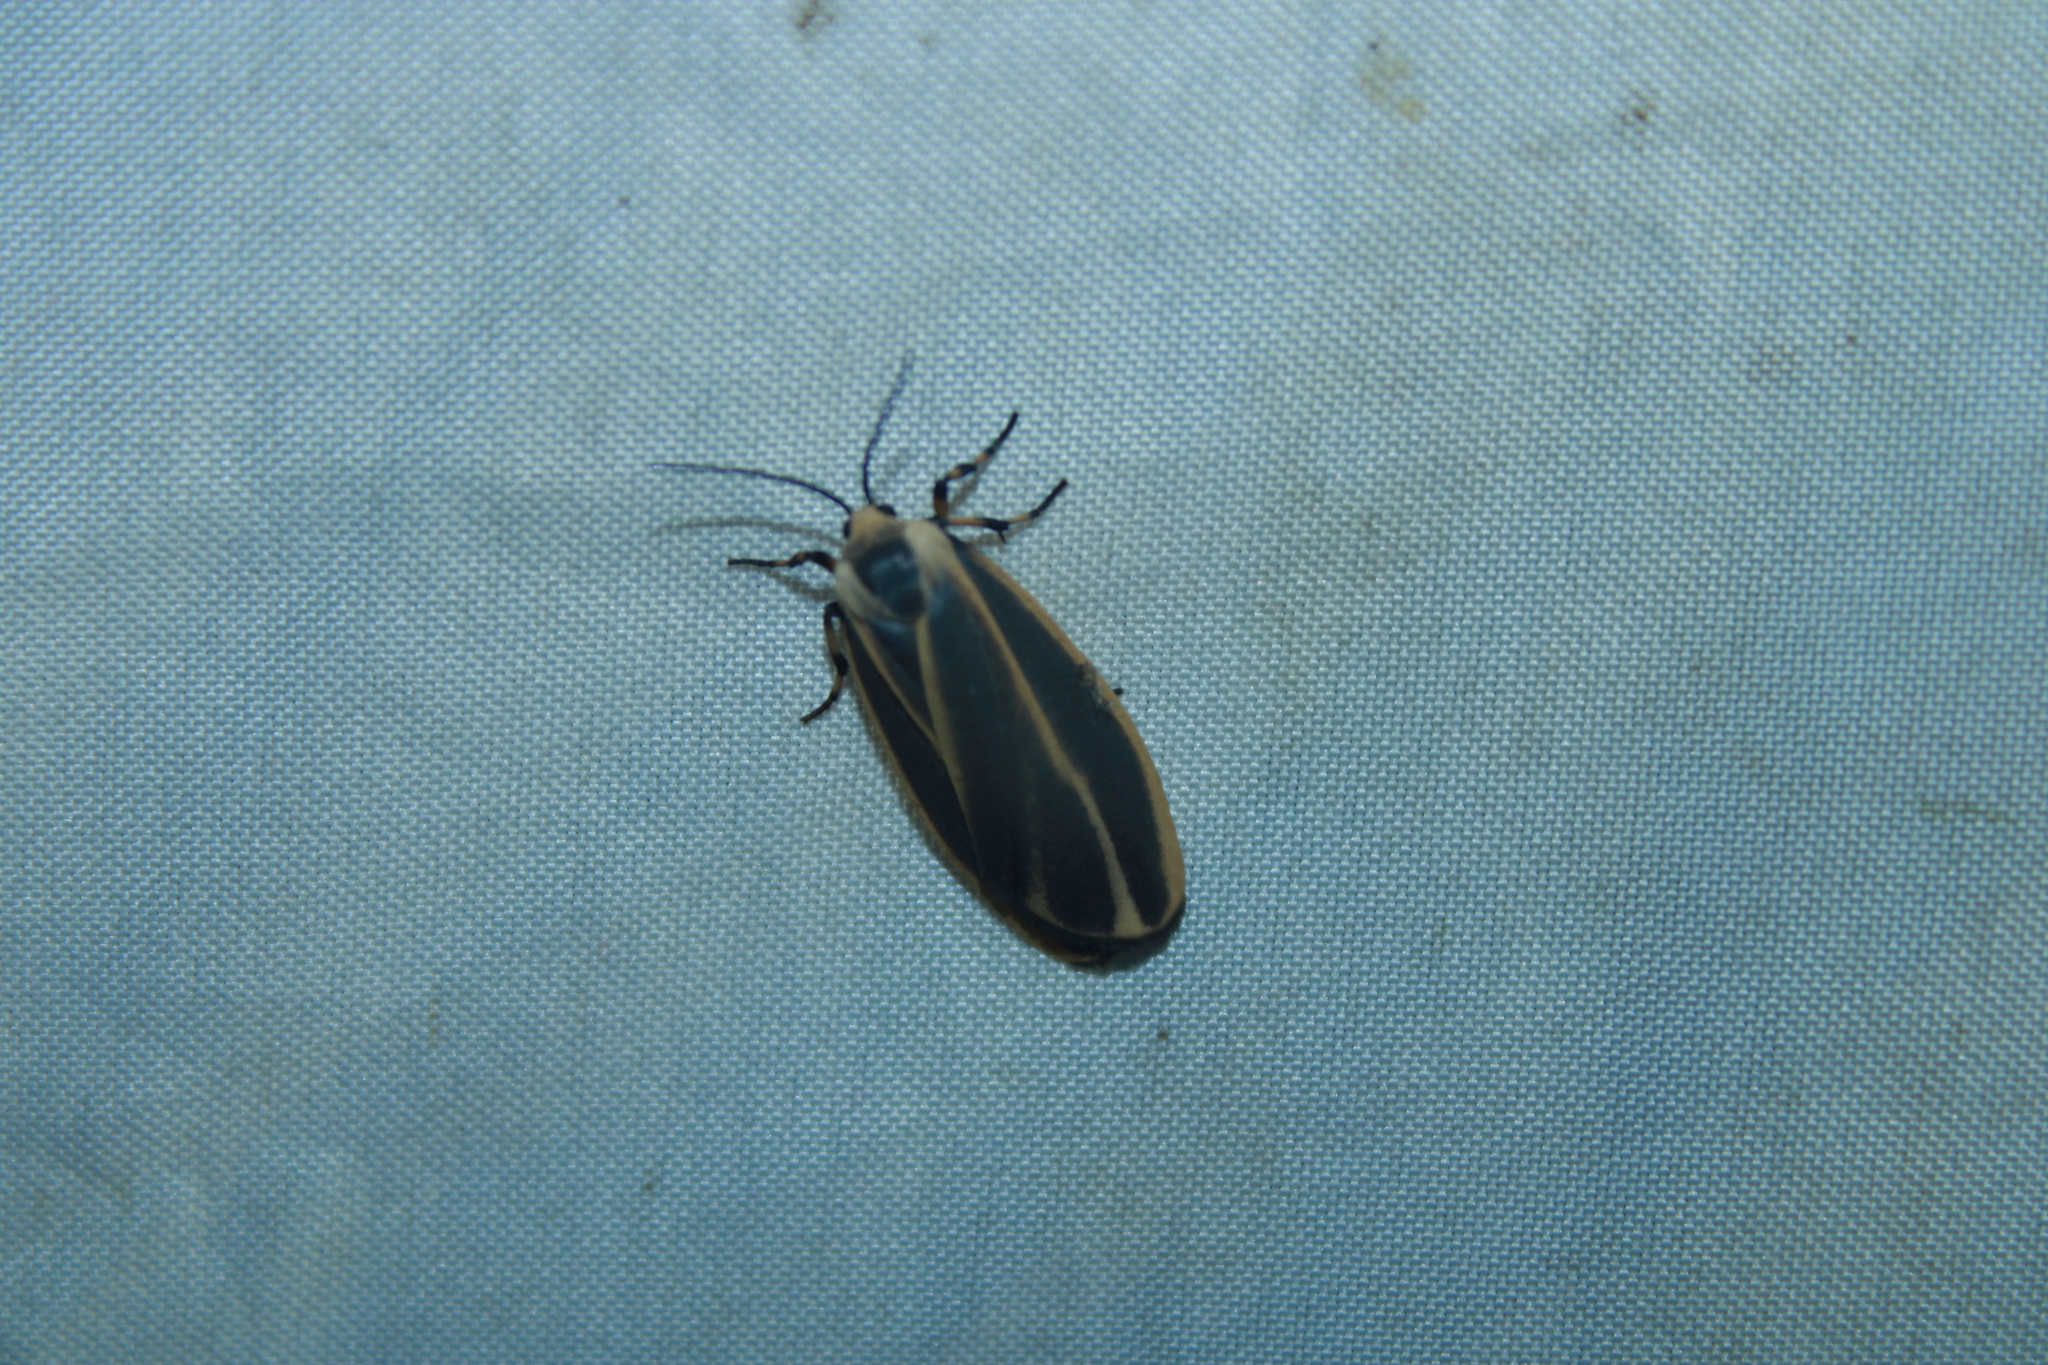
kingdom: Animalia
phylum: Arthropoda
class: Insecta
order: Lepidoptera
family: Erebidae
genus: Hypoprepia
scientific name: Hypoprepia fucosa
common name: Painted lichen moth
